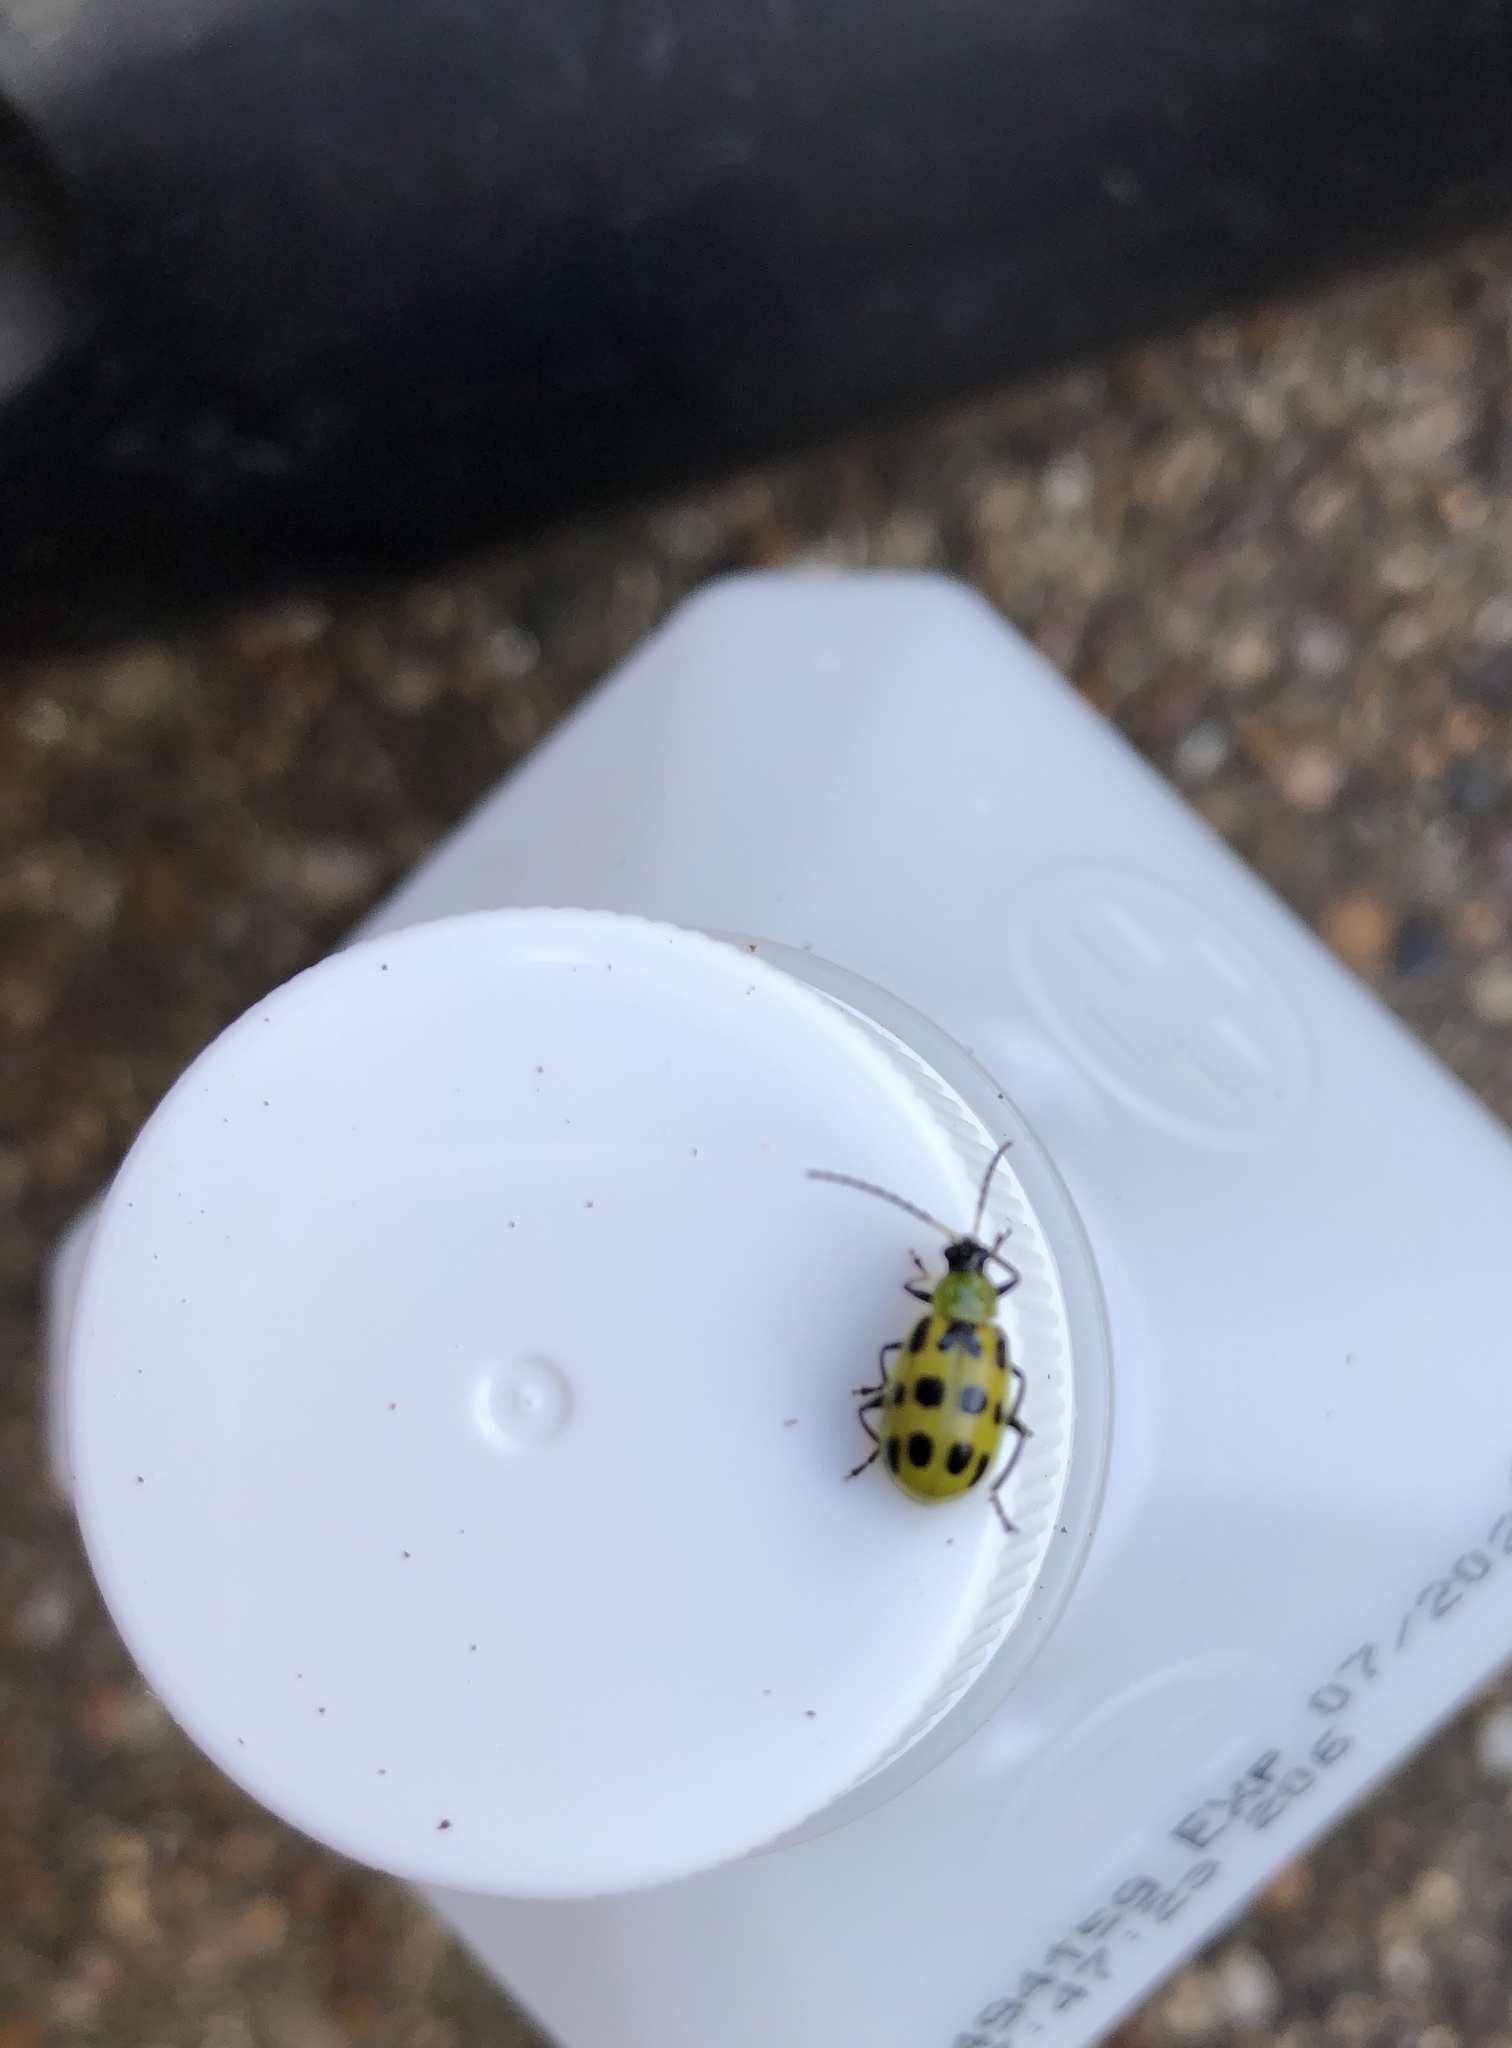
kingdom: Animalia
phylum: Arthropoda
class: Insecta
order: Coleoptera
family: Chrysomelidae
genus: Diabrotica
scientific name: Diabrotica undecimpunctata
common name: Spotted cucumber beetle
